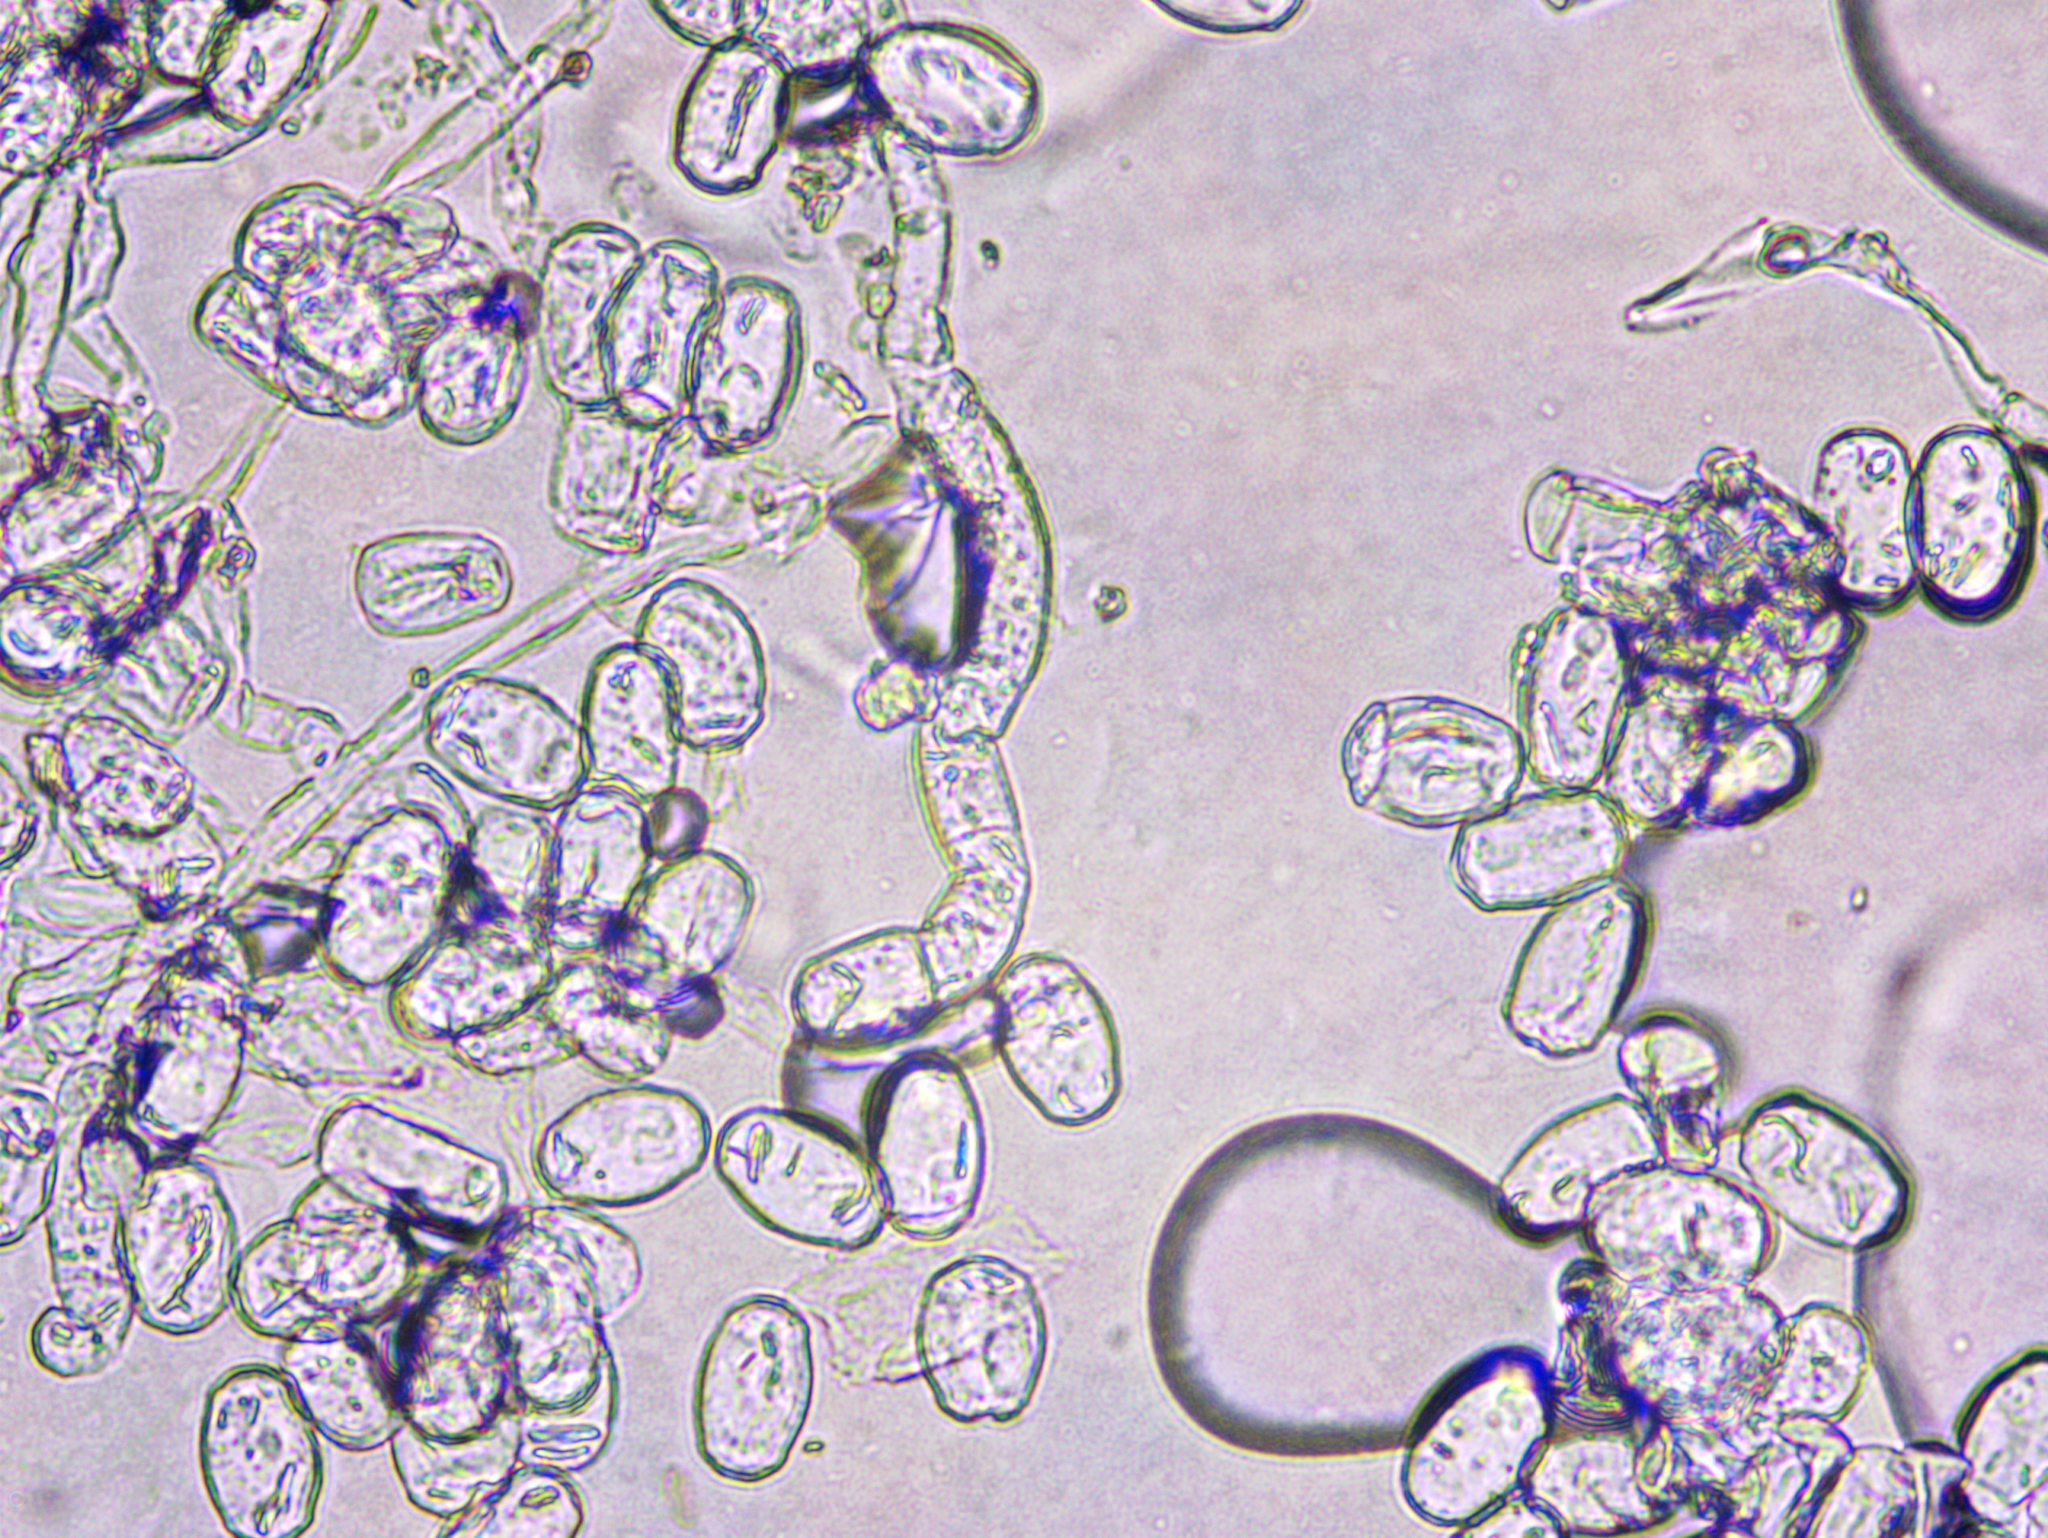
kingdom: Fungi
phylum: Ascomycota
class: Leotiomycetes
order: Helotiales
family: Erysiphaceae
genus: Podosphaera
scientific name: Podosphaera epilobii
